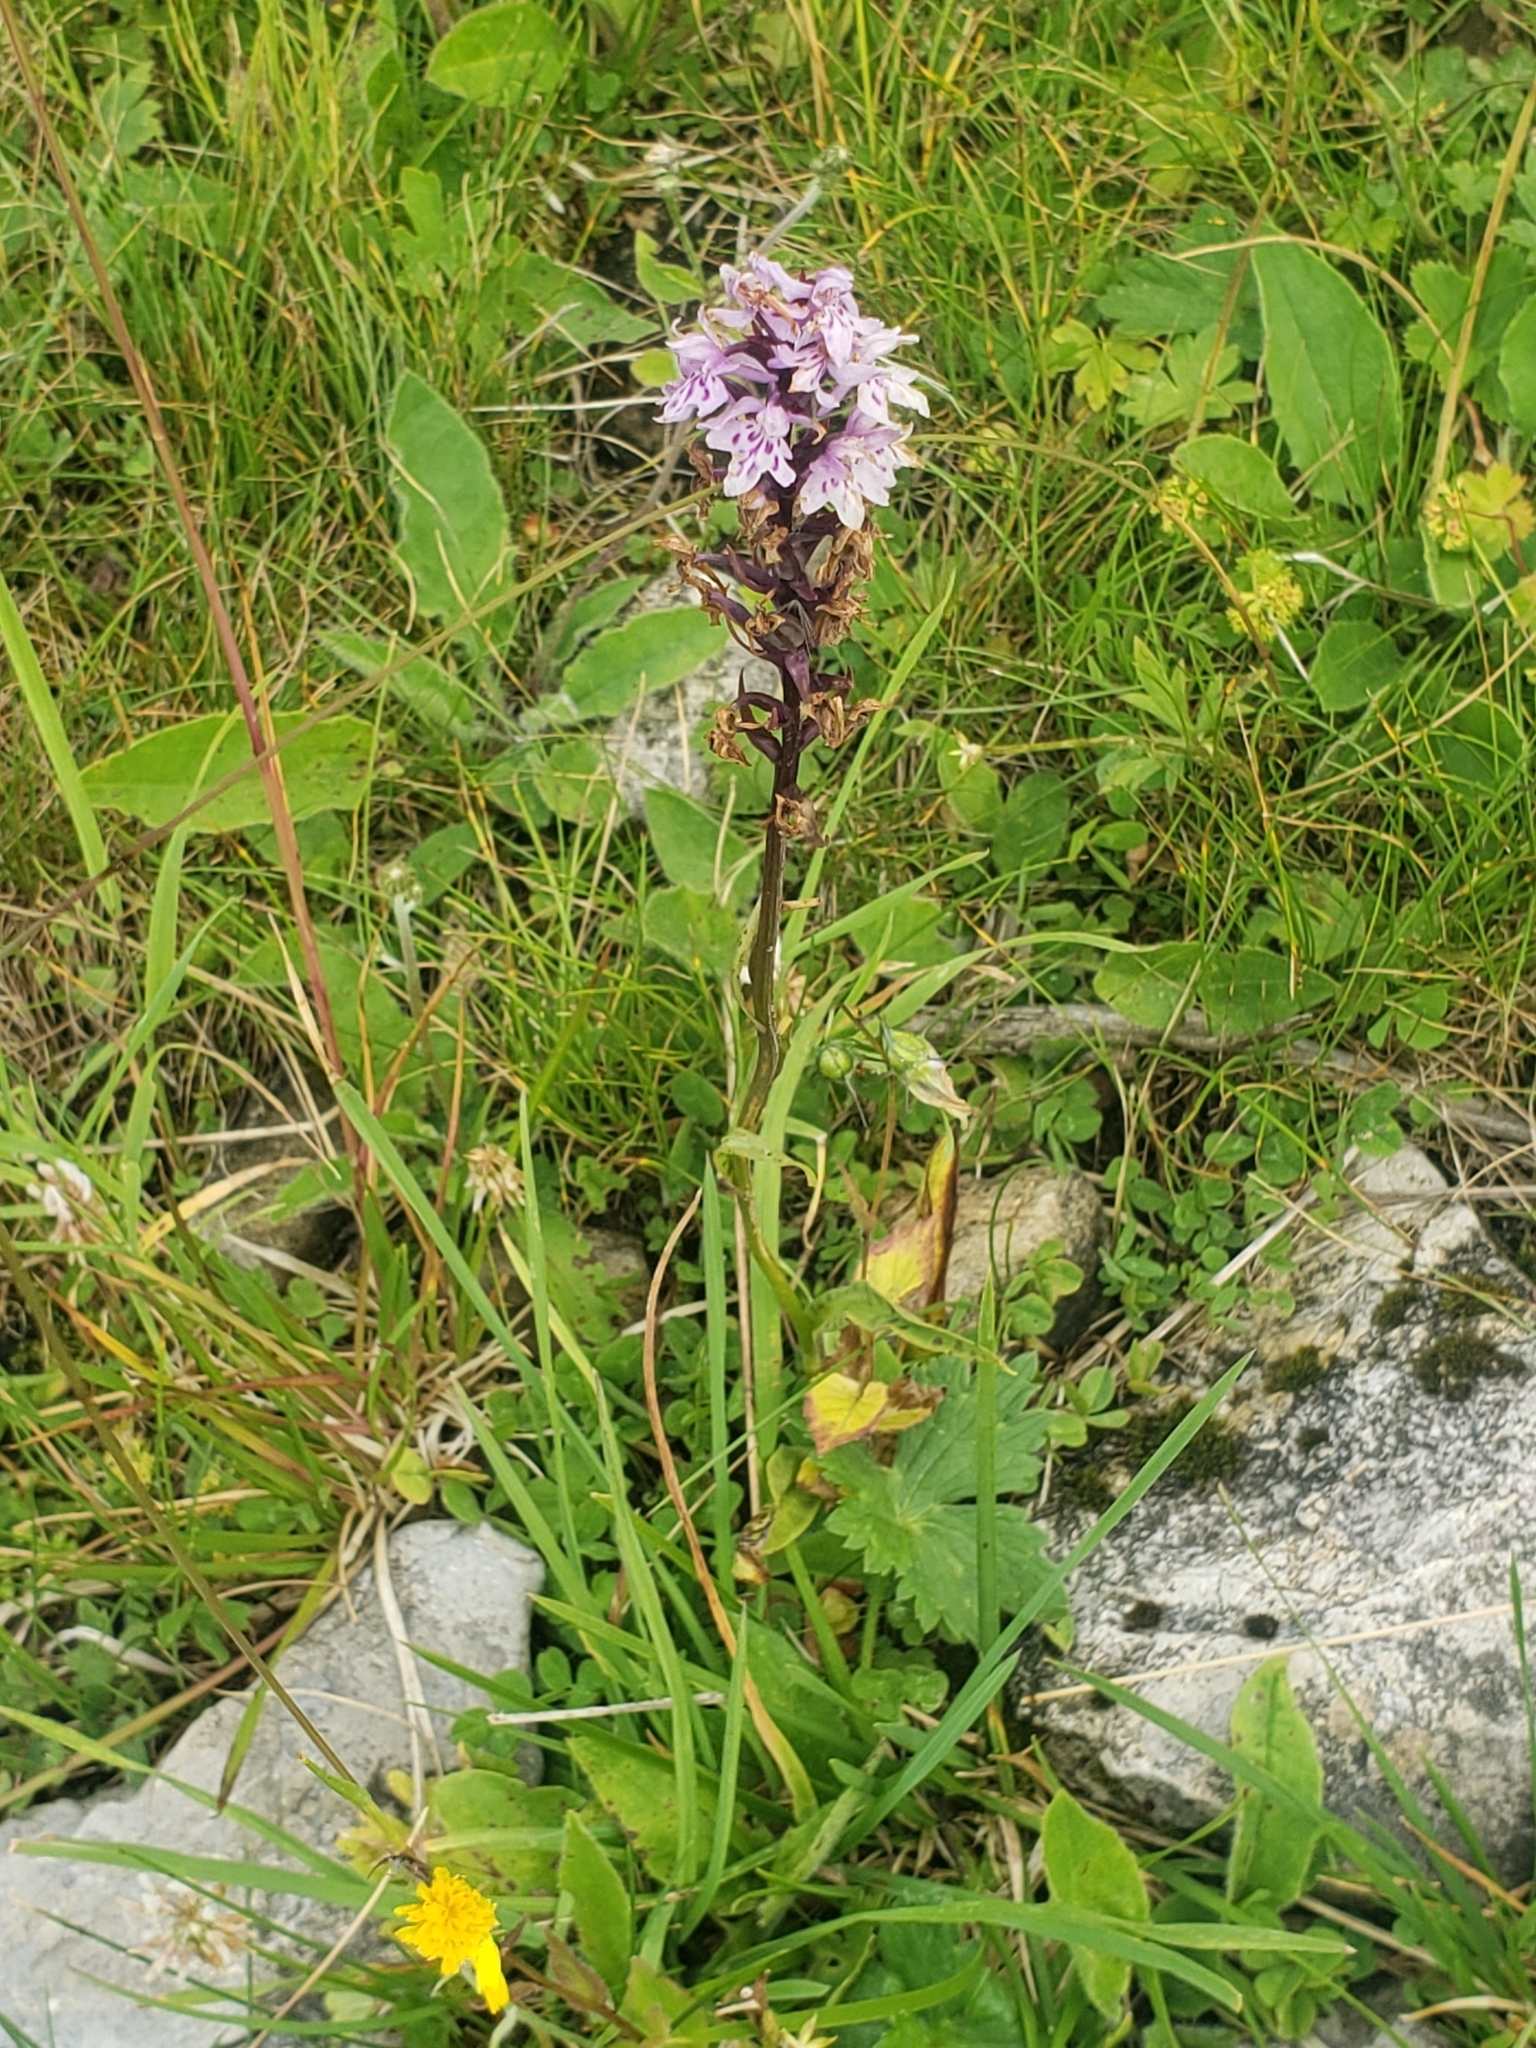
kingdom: Plantae
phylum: Tracheophyta
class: Liliopsida
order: Asparagales
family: Orchidaceae
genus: Dactylorhiza
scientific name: Dactylorhiza maculata
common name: Heath spotted-orchid
